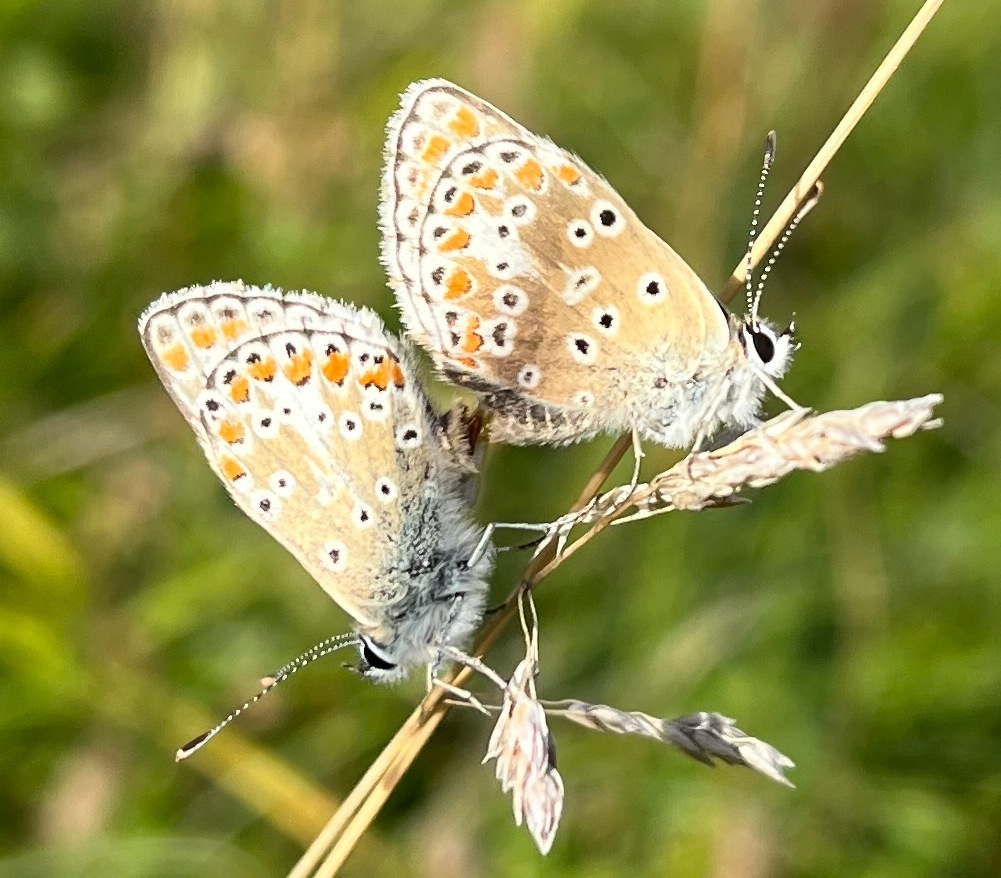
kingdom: Animalia
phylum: Arthropoda
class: Insecta
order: Lepidoptera
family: Lycaenidae
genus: Polyommatus
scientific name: Polyommatus icarus
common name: Common blue
